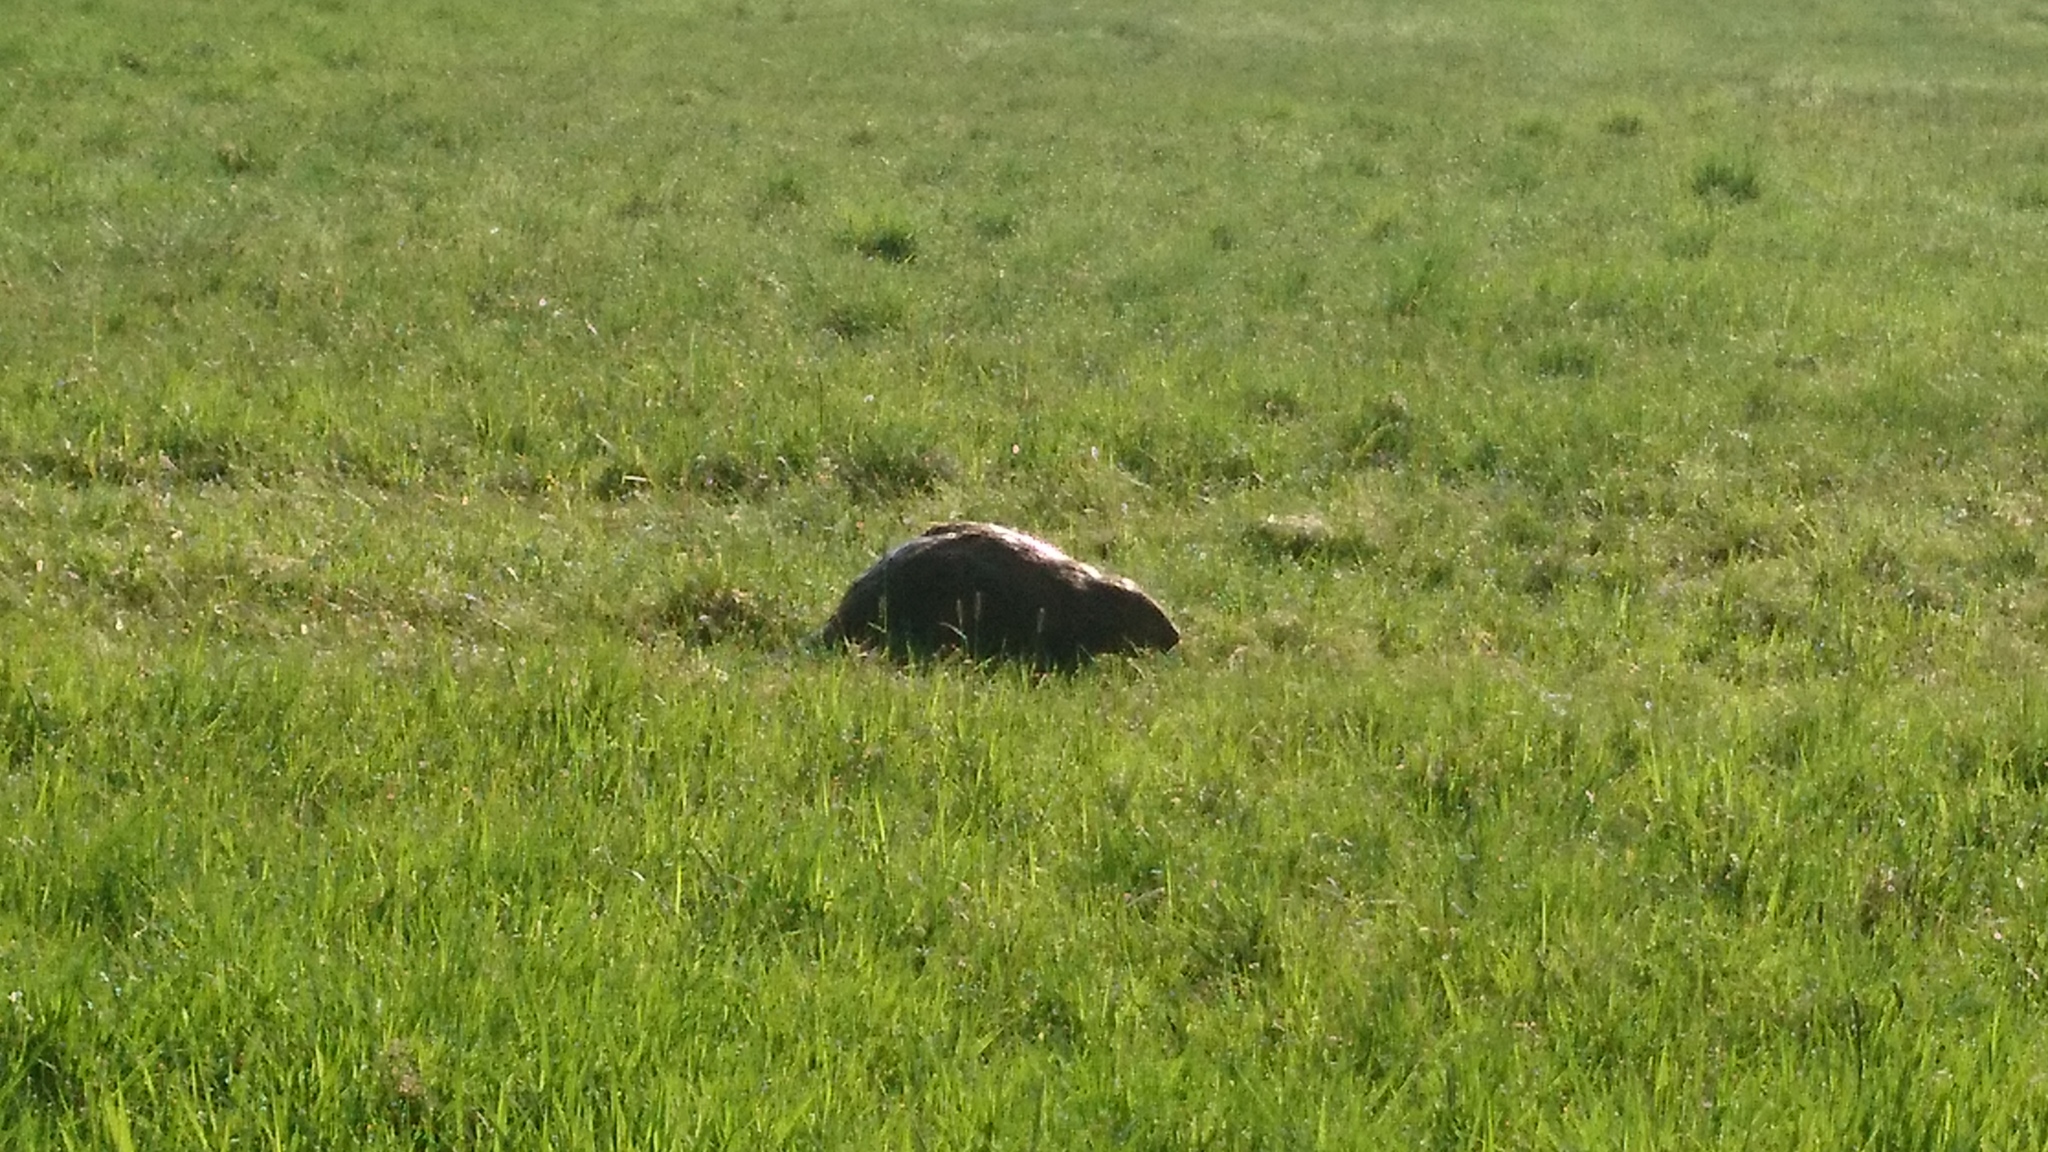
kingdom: Animalia
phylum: Chordata
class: Mammalia
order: Rodentia
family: Castoridae
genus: Castor
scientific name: Castor fiber
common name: Eurasian beaver
